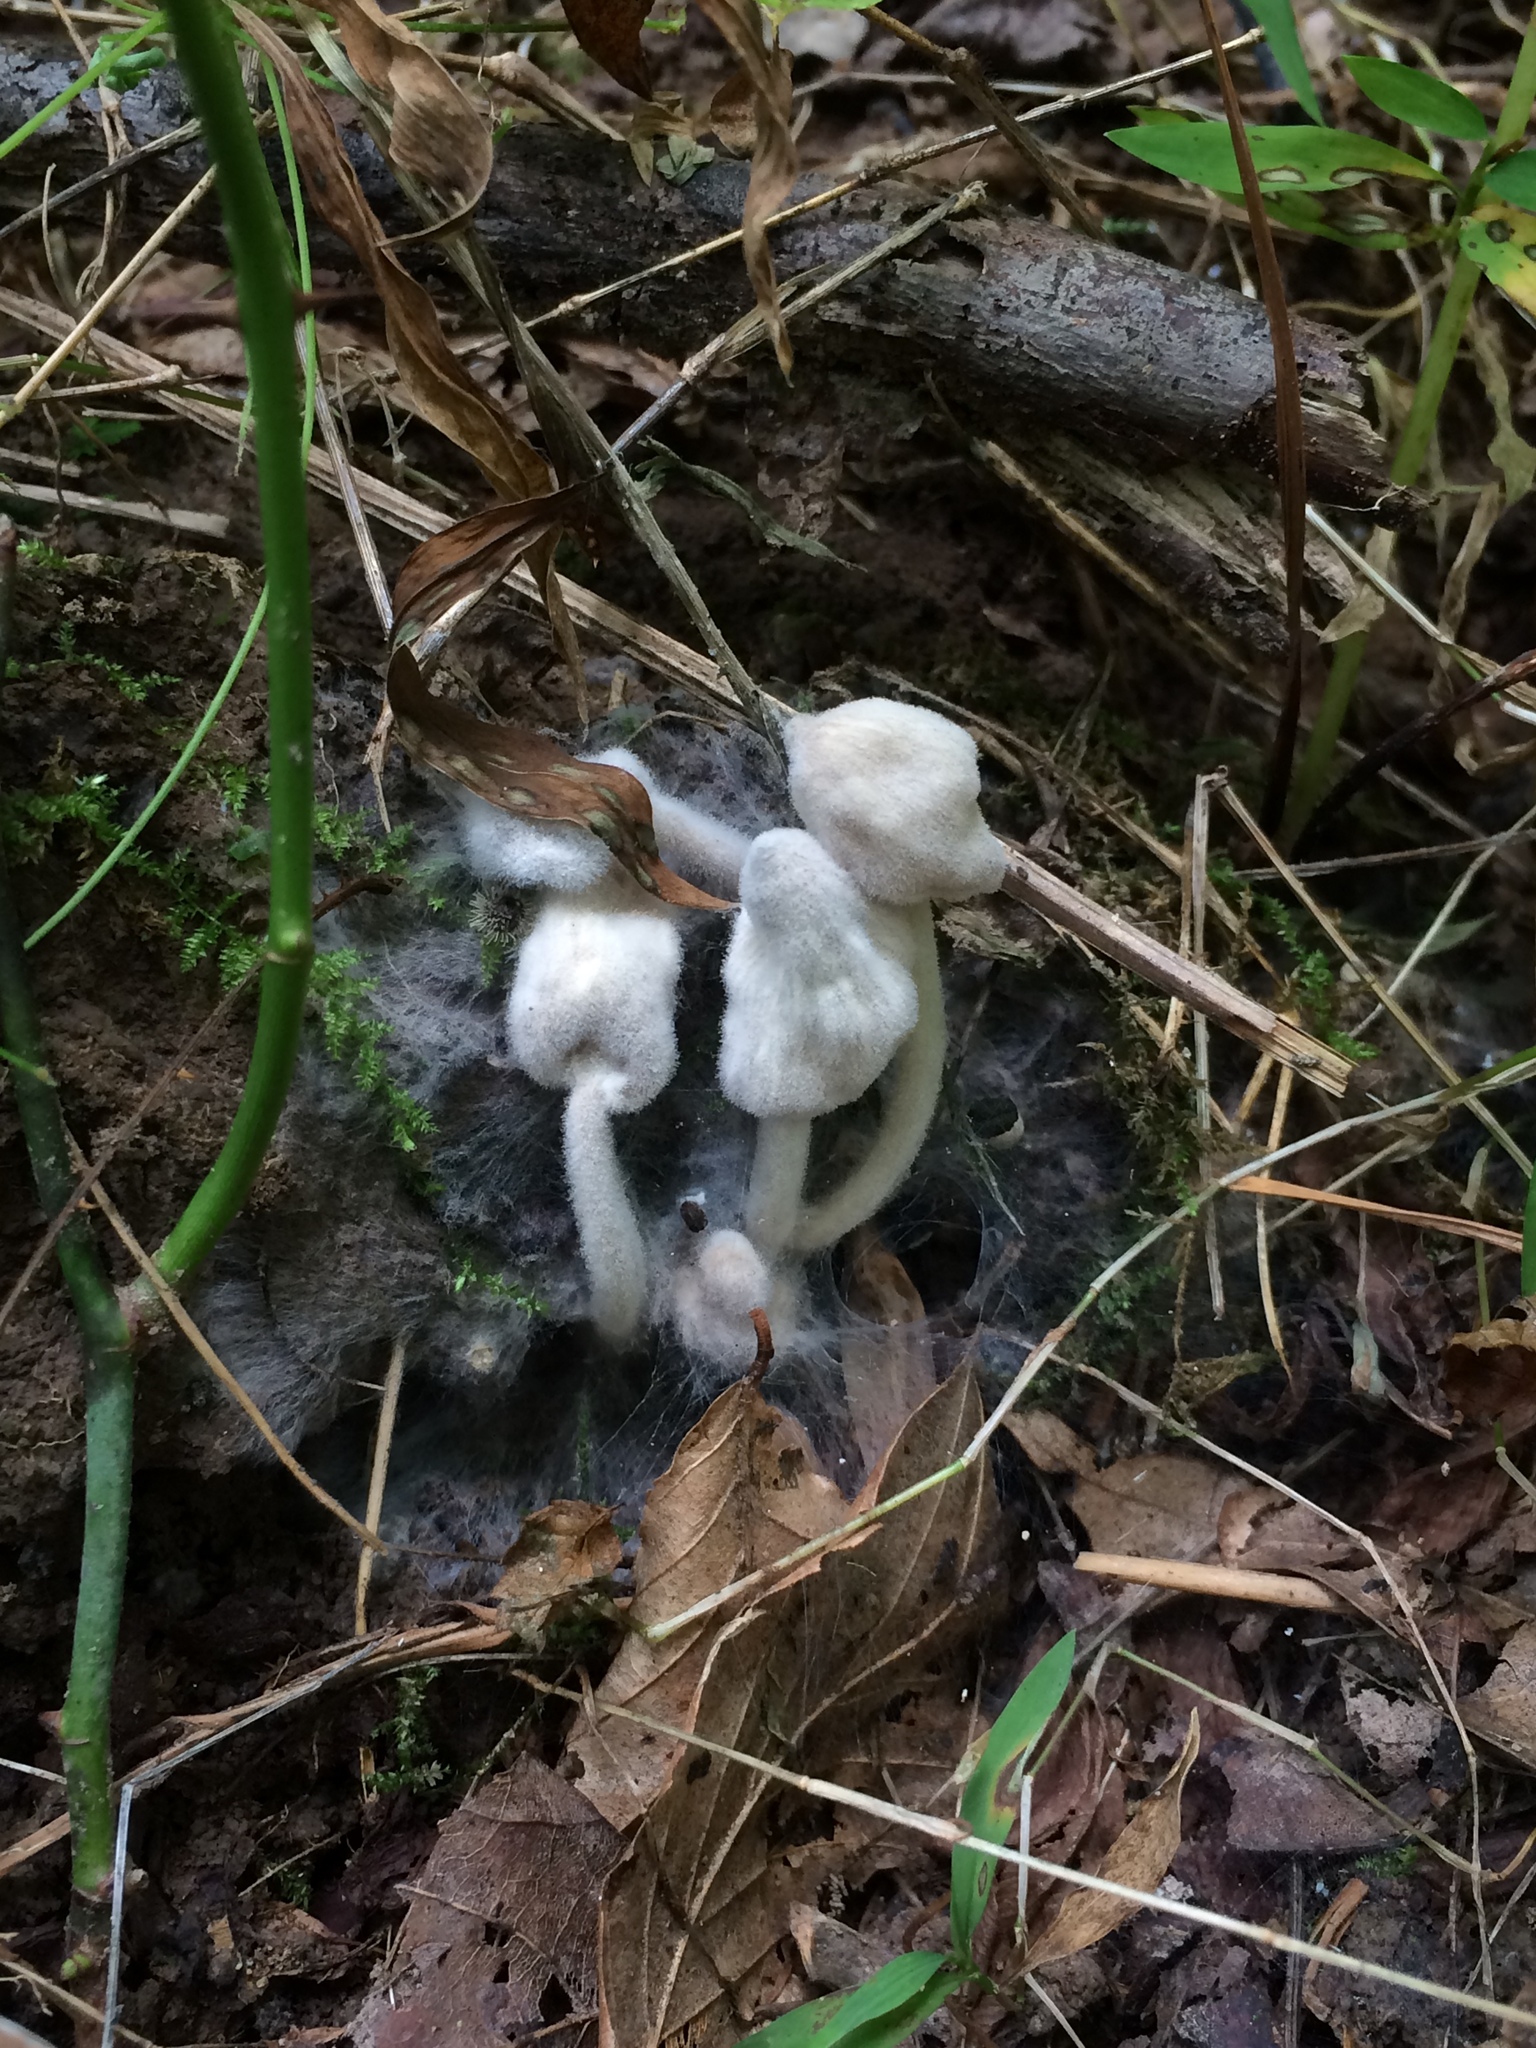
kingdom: Fungi
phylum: Ascomycota
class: Sordariomycetes
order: Hypocreales
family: Hypocreaceae
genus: Hypomyces
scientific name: Hypomyces chlorinus
